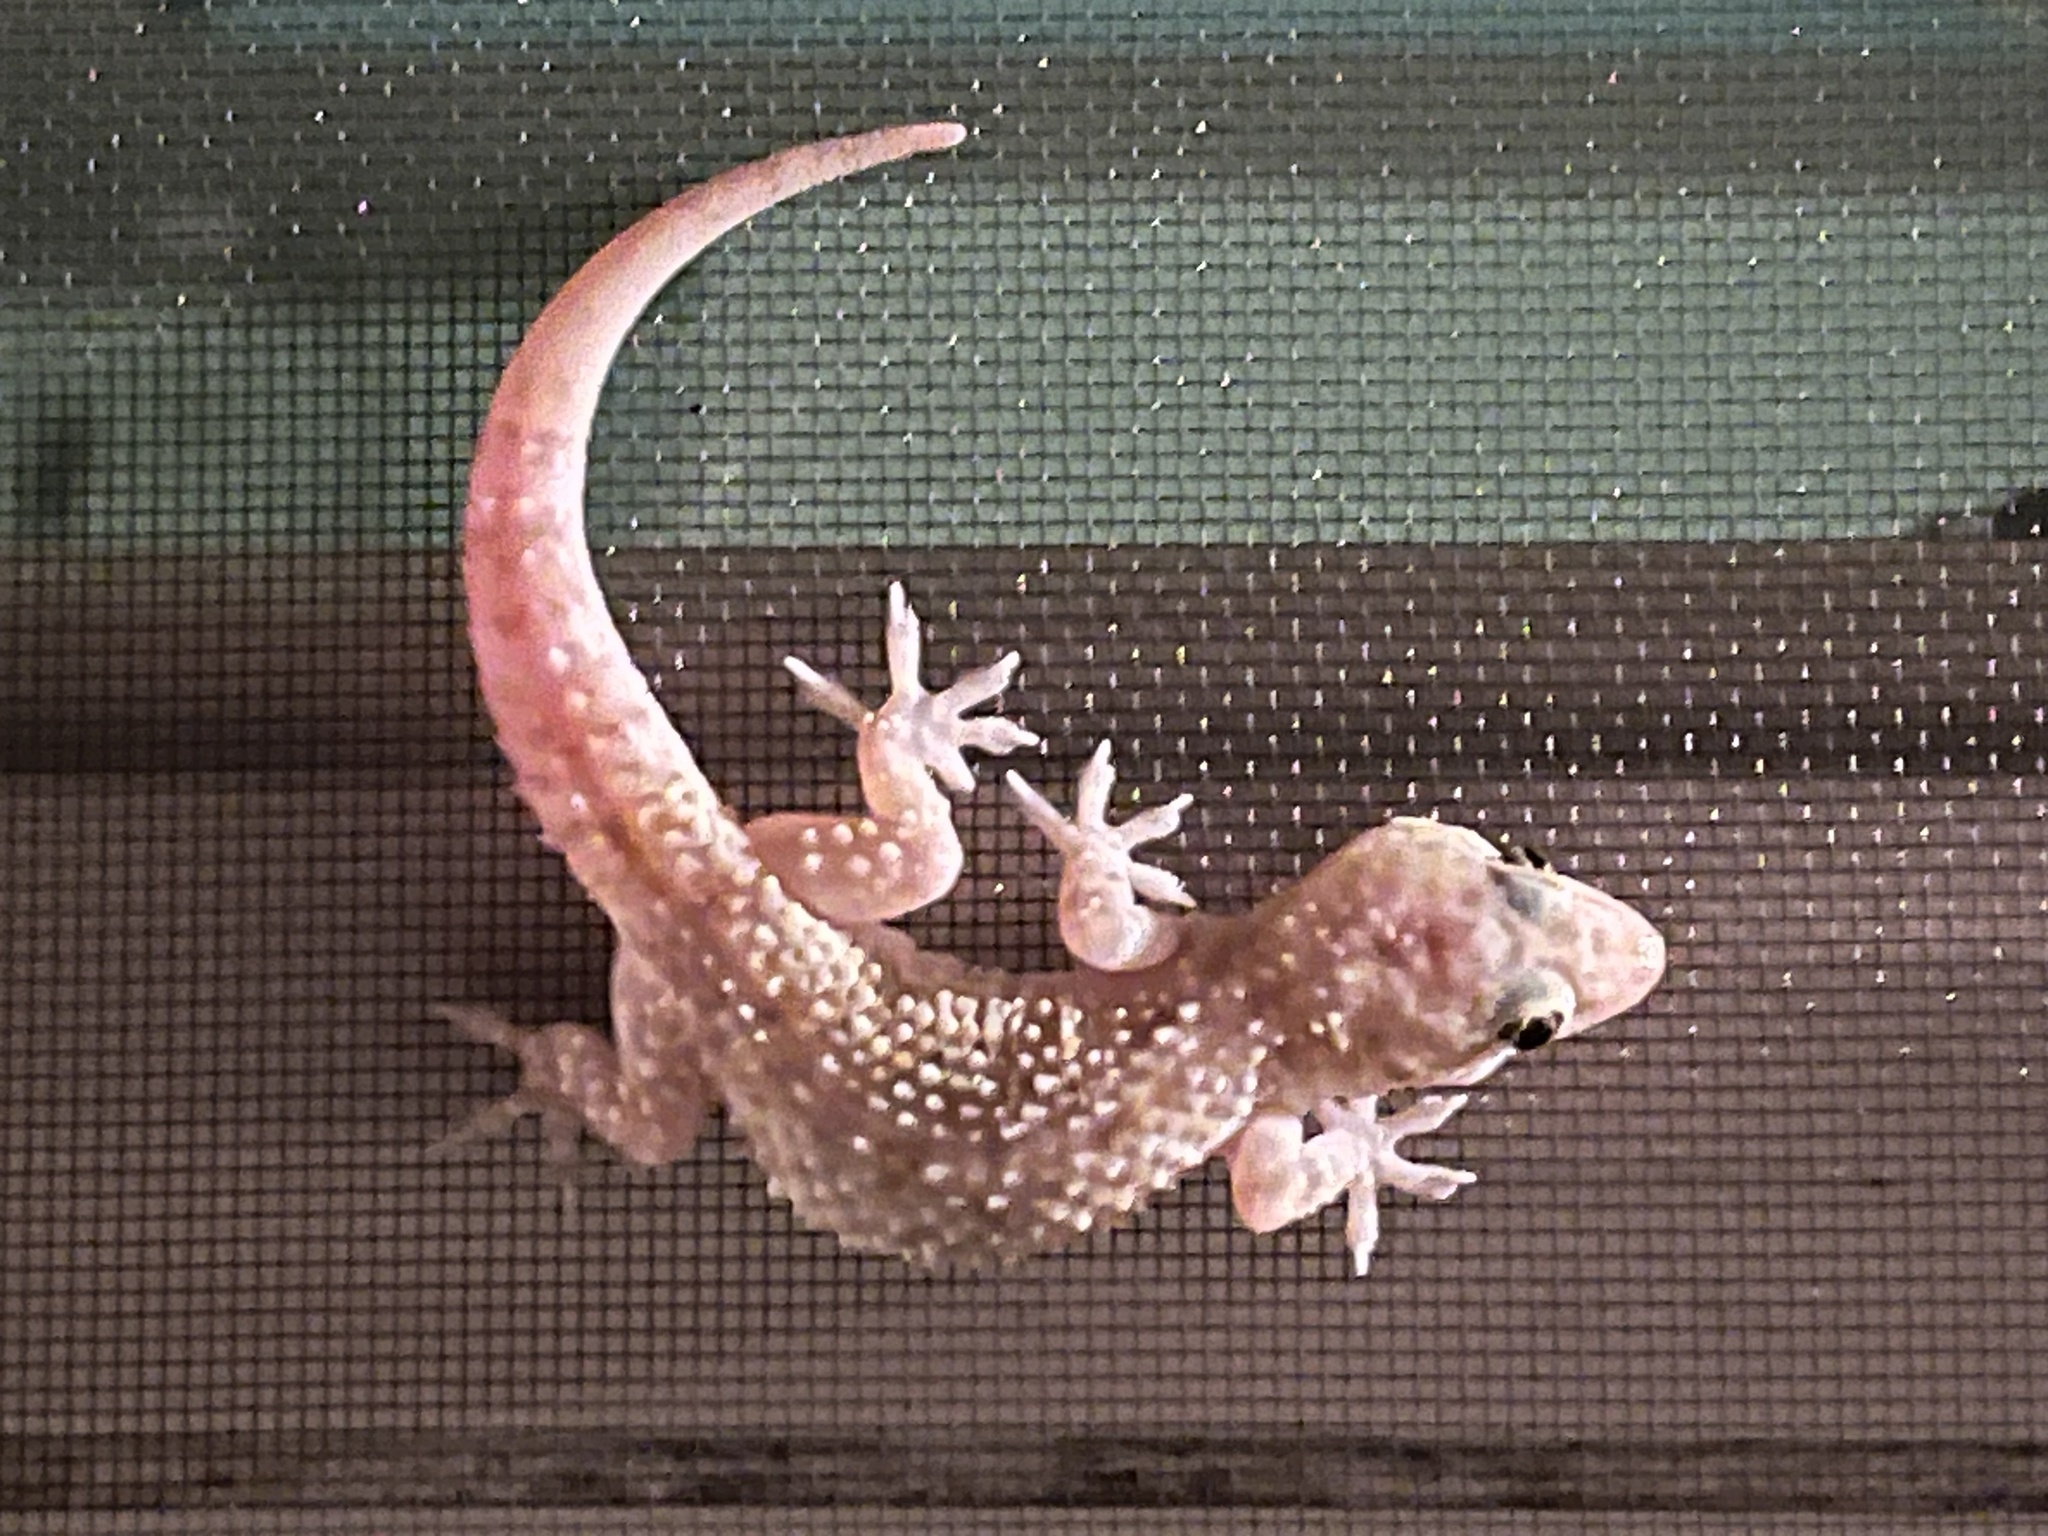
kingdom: Animalia
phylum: Chordata
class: Squamata
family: Gekkonidae
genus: Hemidactylus
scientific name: Hemidactylus turcicus
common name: Turkish gecko
